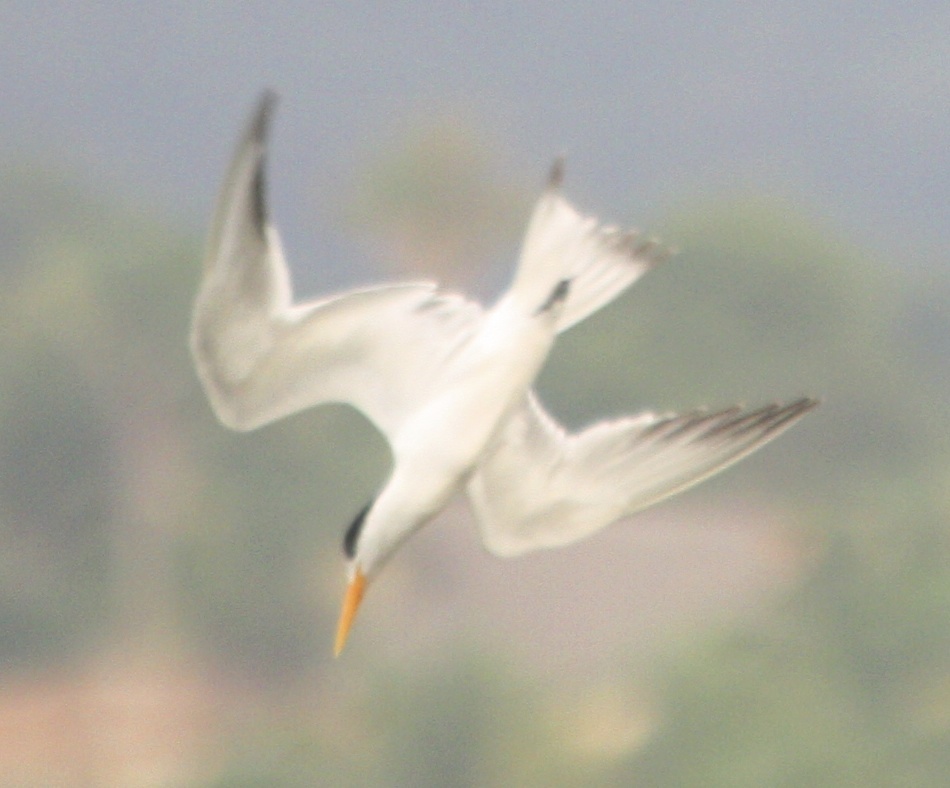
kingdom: Animalia
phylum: Chordata
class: Aves
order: Charadriiformes
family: Laridae
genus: Thalasseus
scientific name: Thalasseus elegans
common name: Elegant tern
